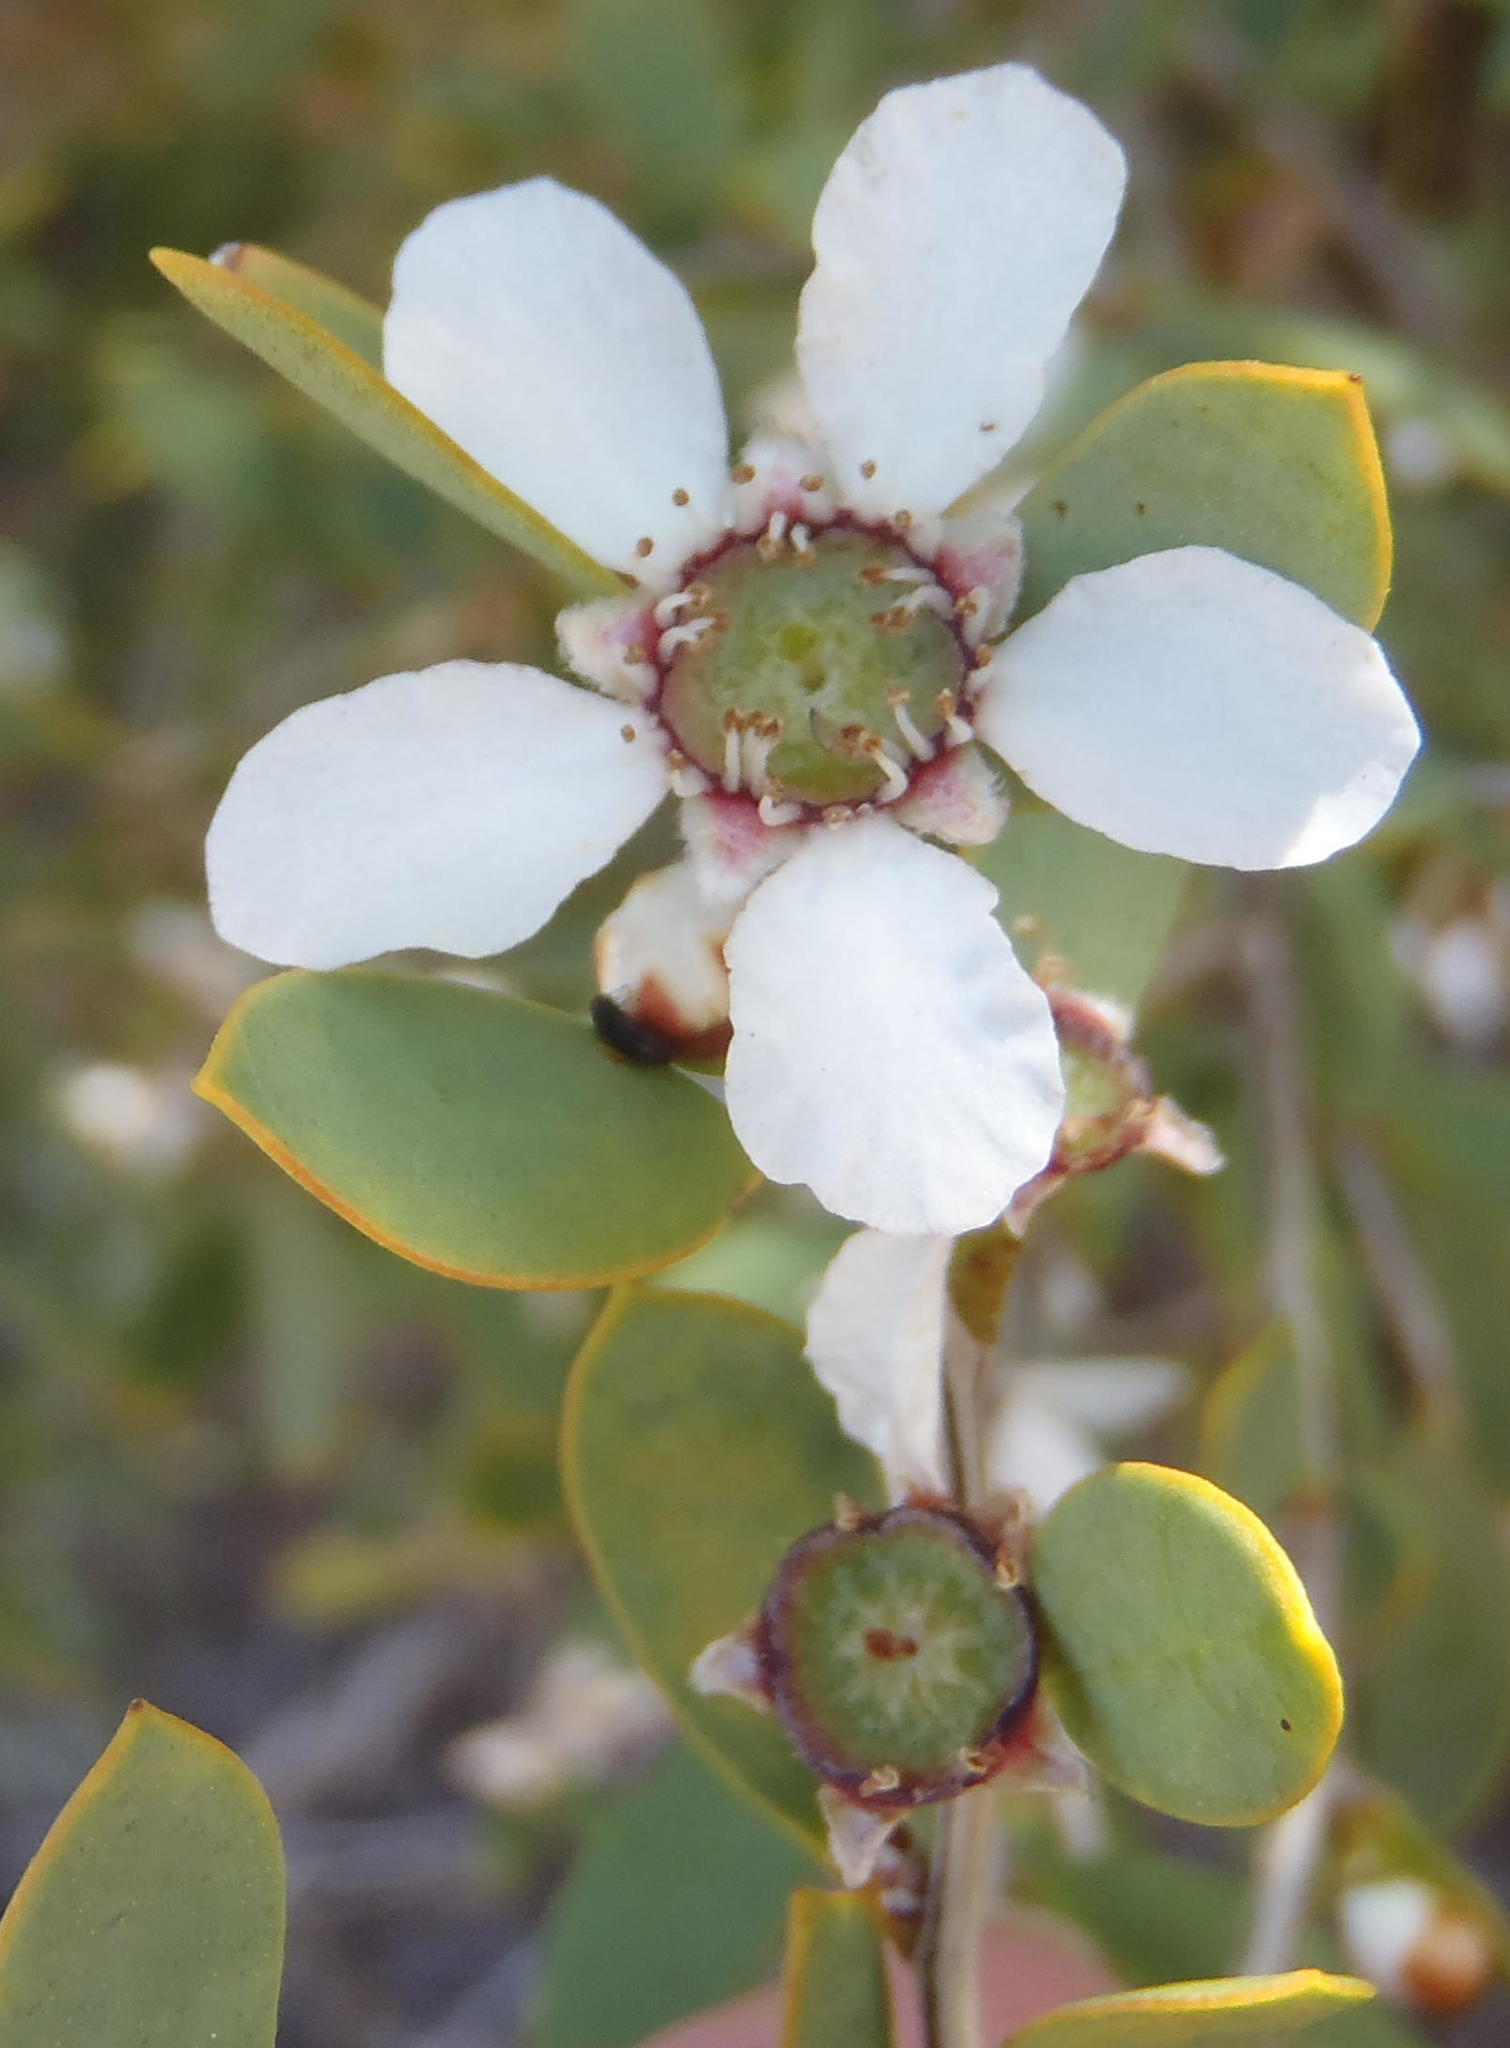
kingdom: Plantae
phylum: Tracheophyta
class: Magnoliopsida
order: Myrtales
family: Myrtaceae
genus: Leptospermum
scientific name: Leptospermum laevigatum
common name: Australian teatree
